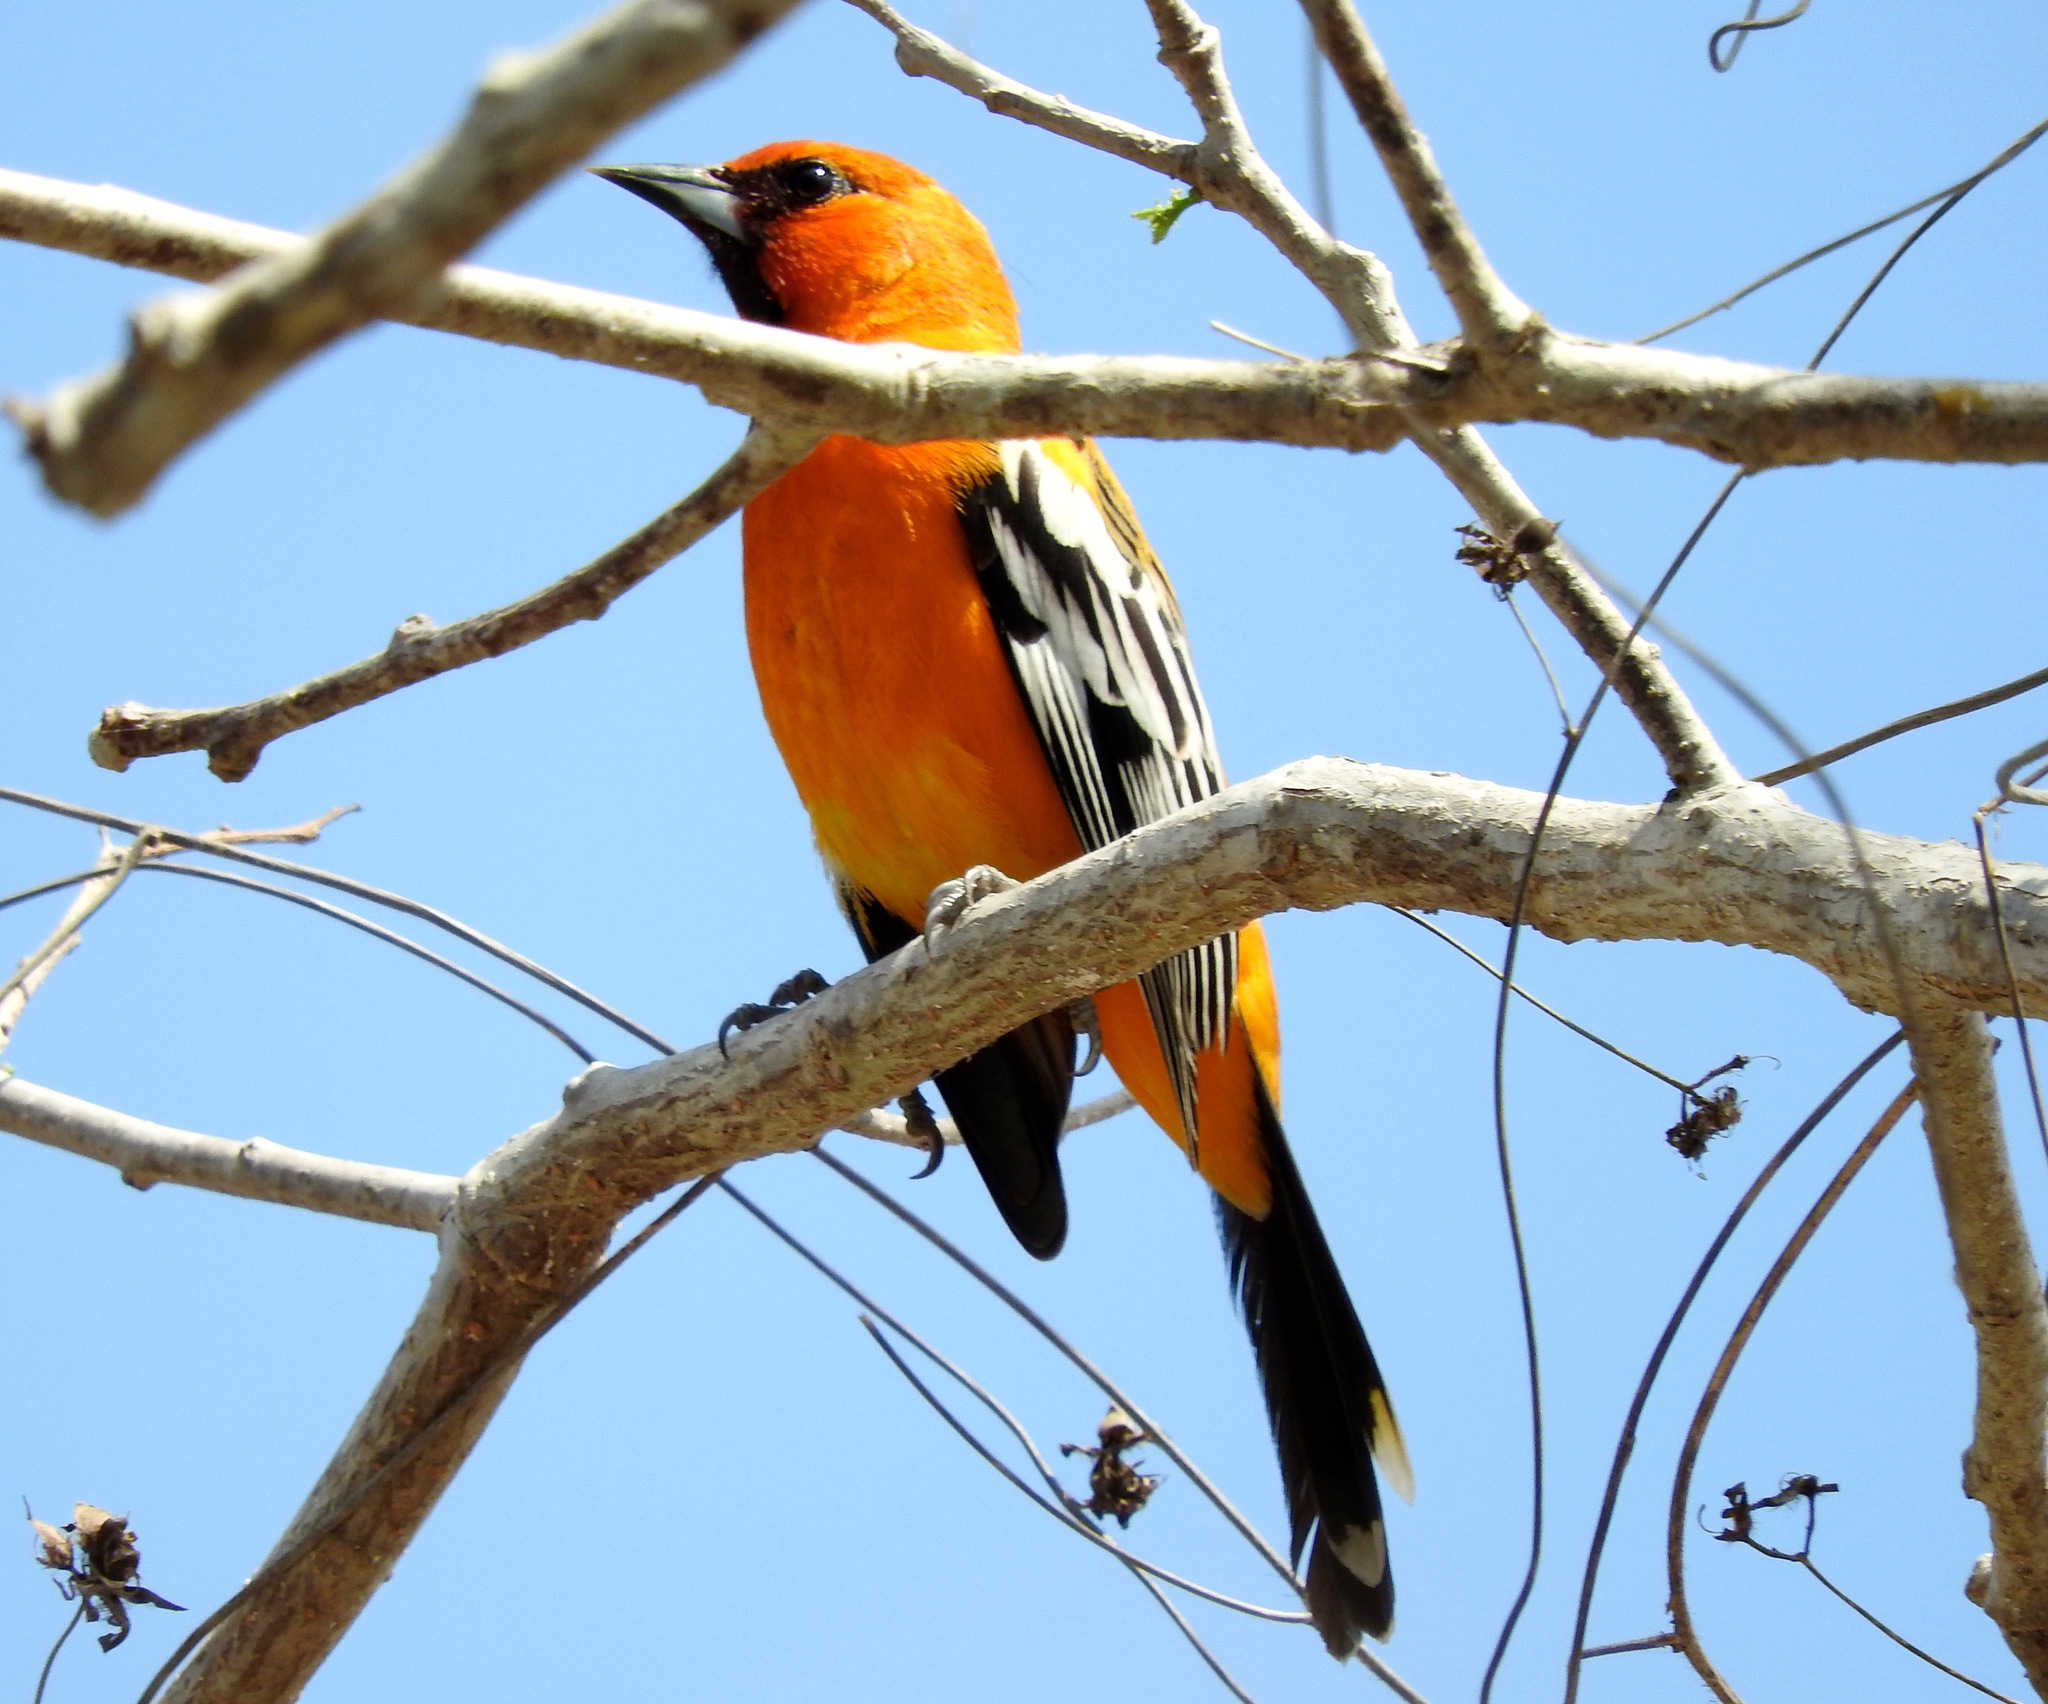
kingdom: Animalia
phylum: Chordata
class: Aves
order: Passeriformes
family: Icteridae
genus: Icterus
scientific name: Icterus pustulatus
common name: Streak-backed oriole
